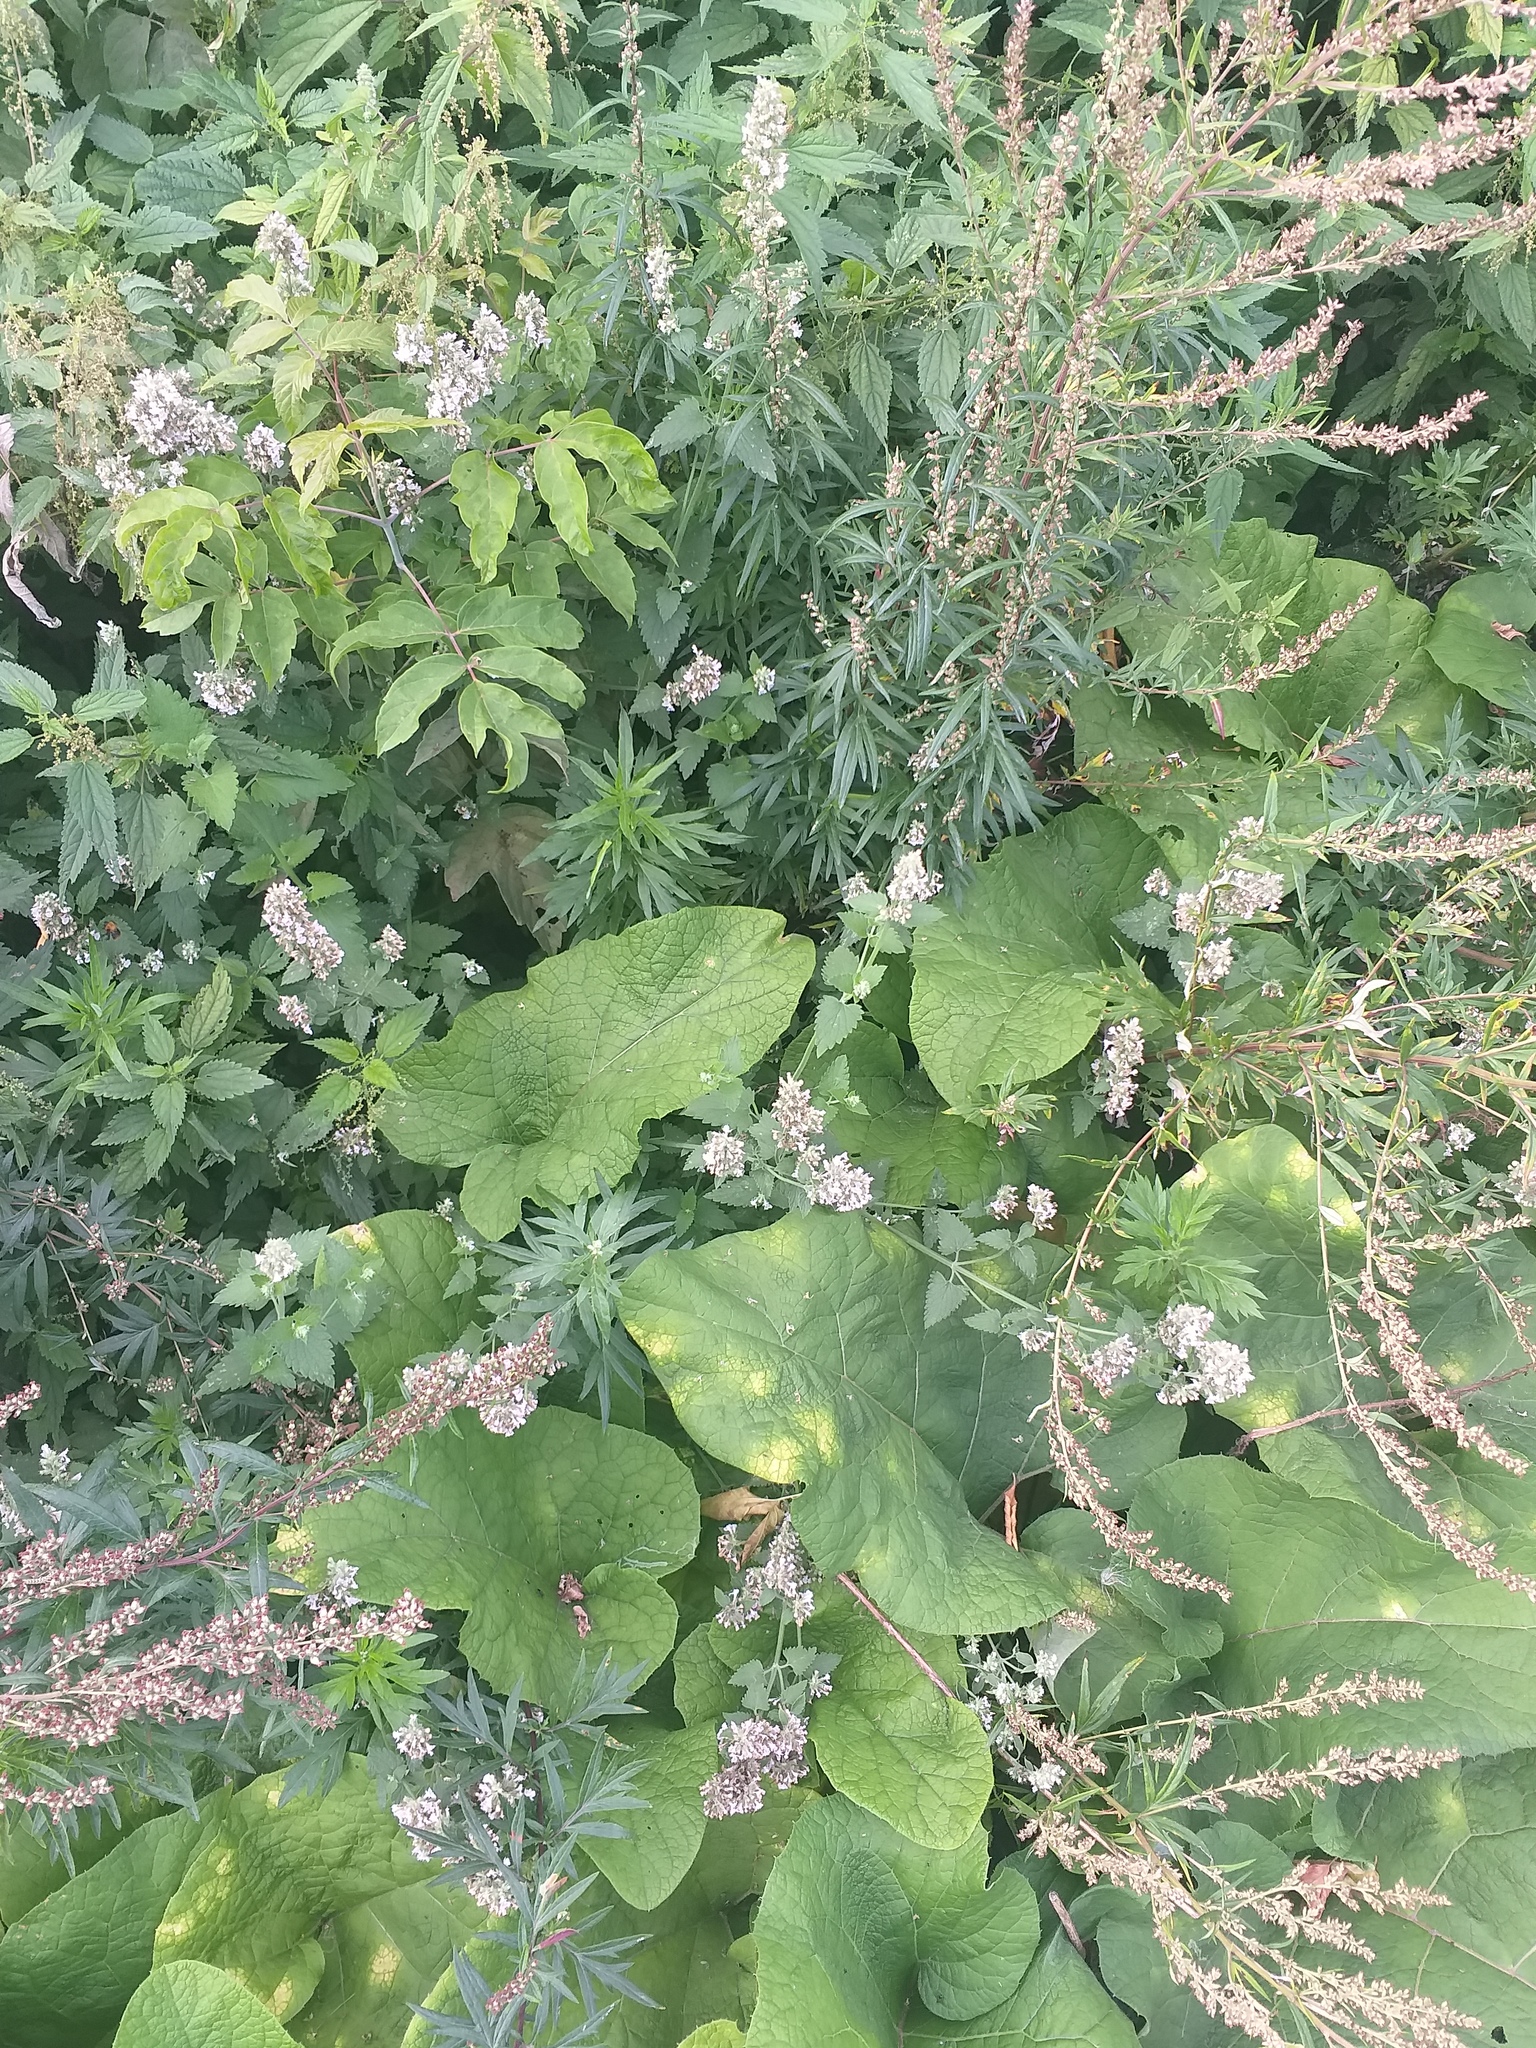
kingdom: Plantae
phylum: Tracheophyta
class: Magnoliopsida
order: Lamiales
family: Lamiaceae
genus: Nepeta
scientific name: Nepeta cataria
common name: Catnip
